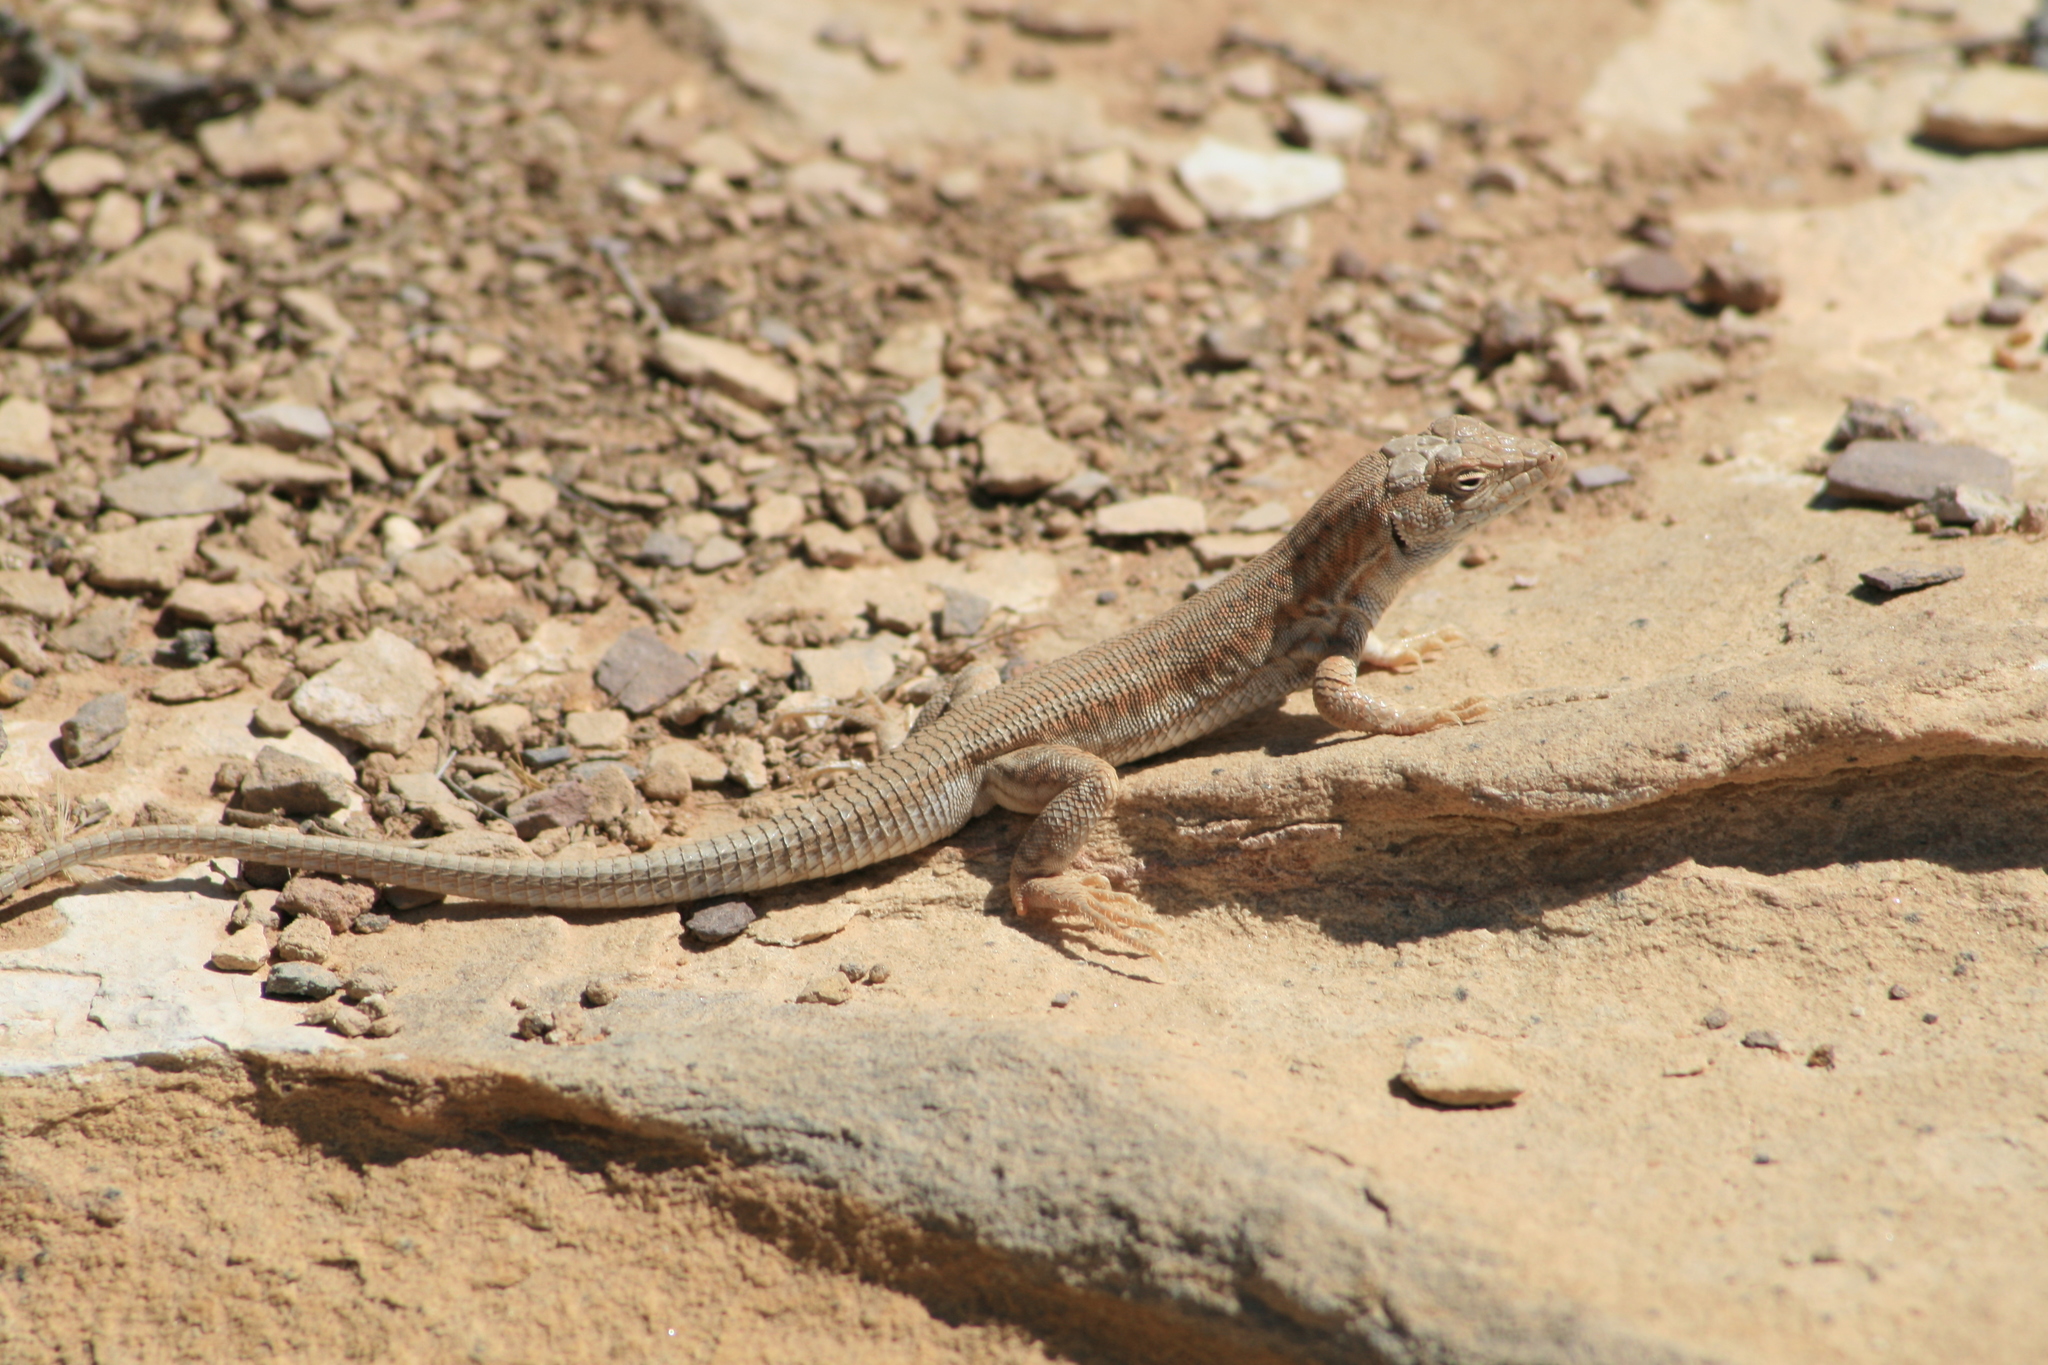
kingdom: Animalia
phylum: Chordata
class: Squamata
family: Lacertidae
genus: Acanthodactylus
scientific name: Acanthodactylus
